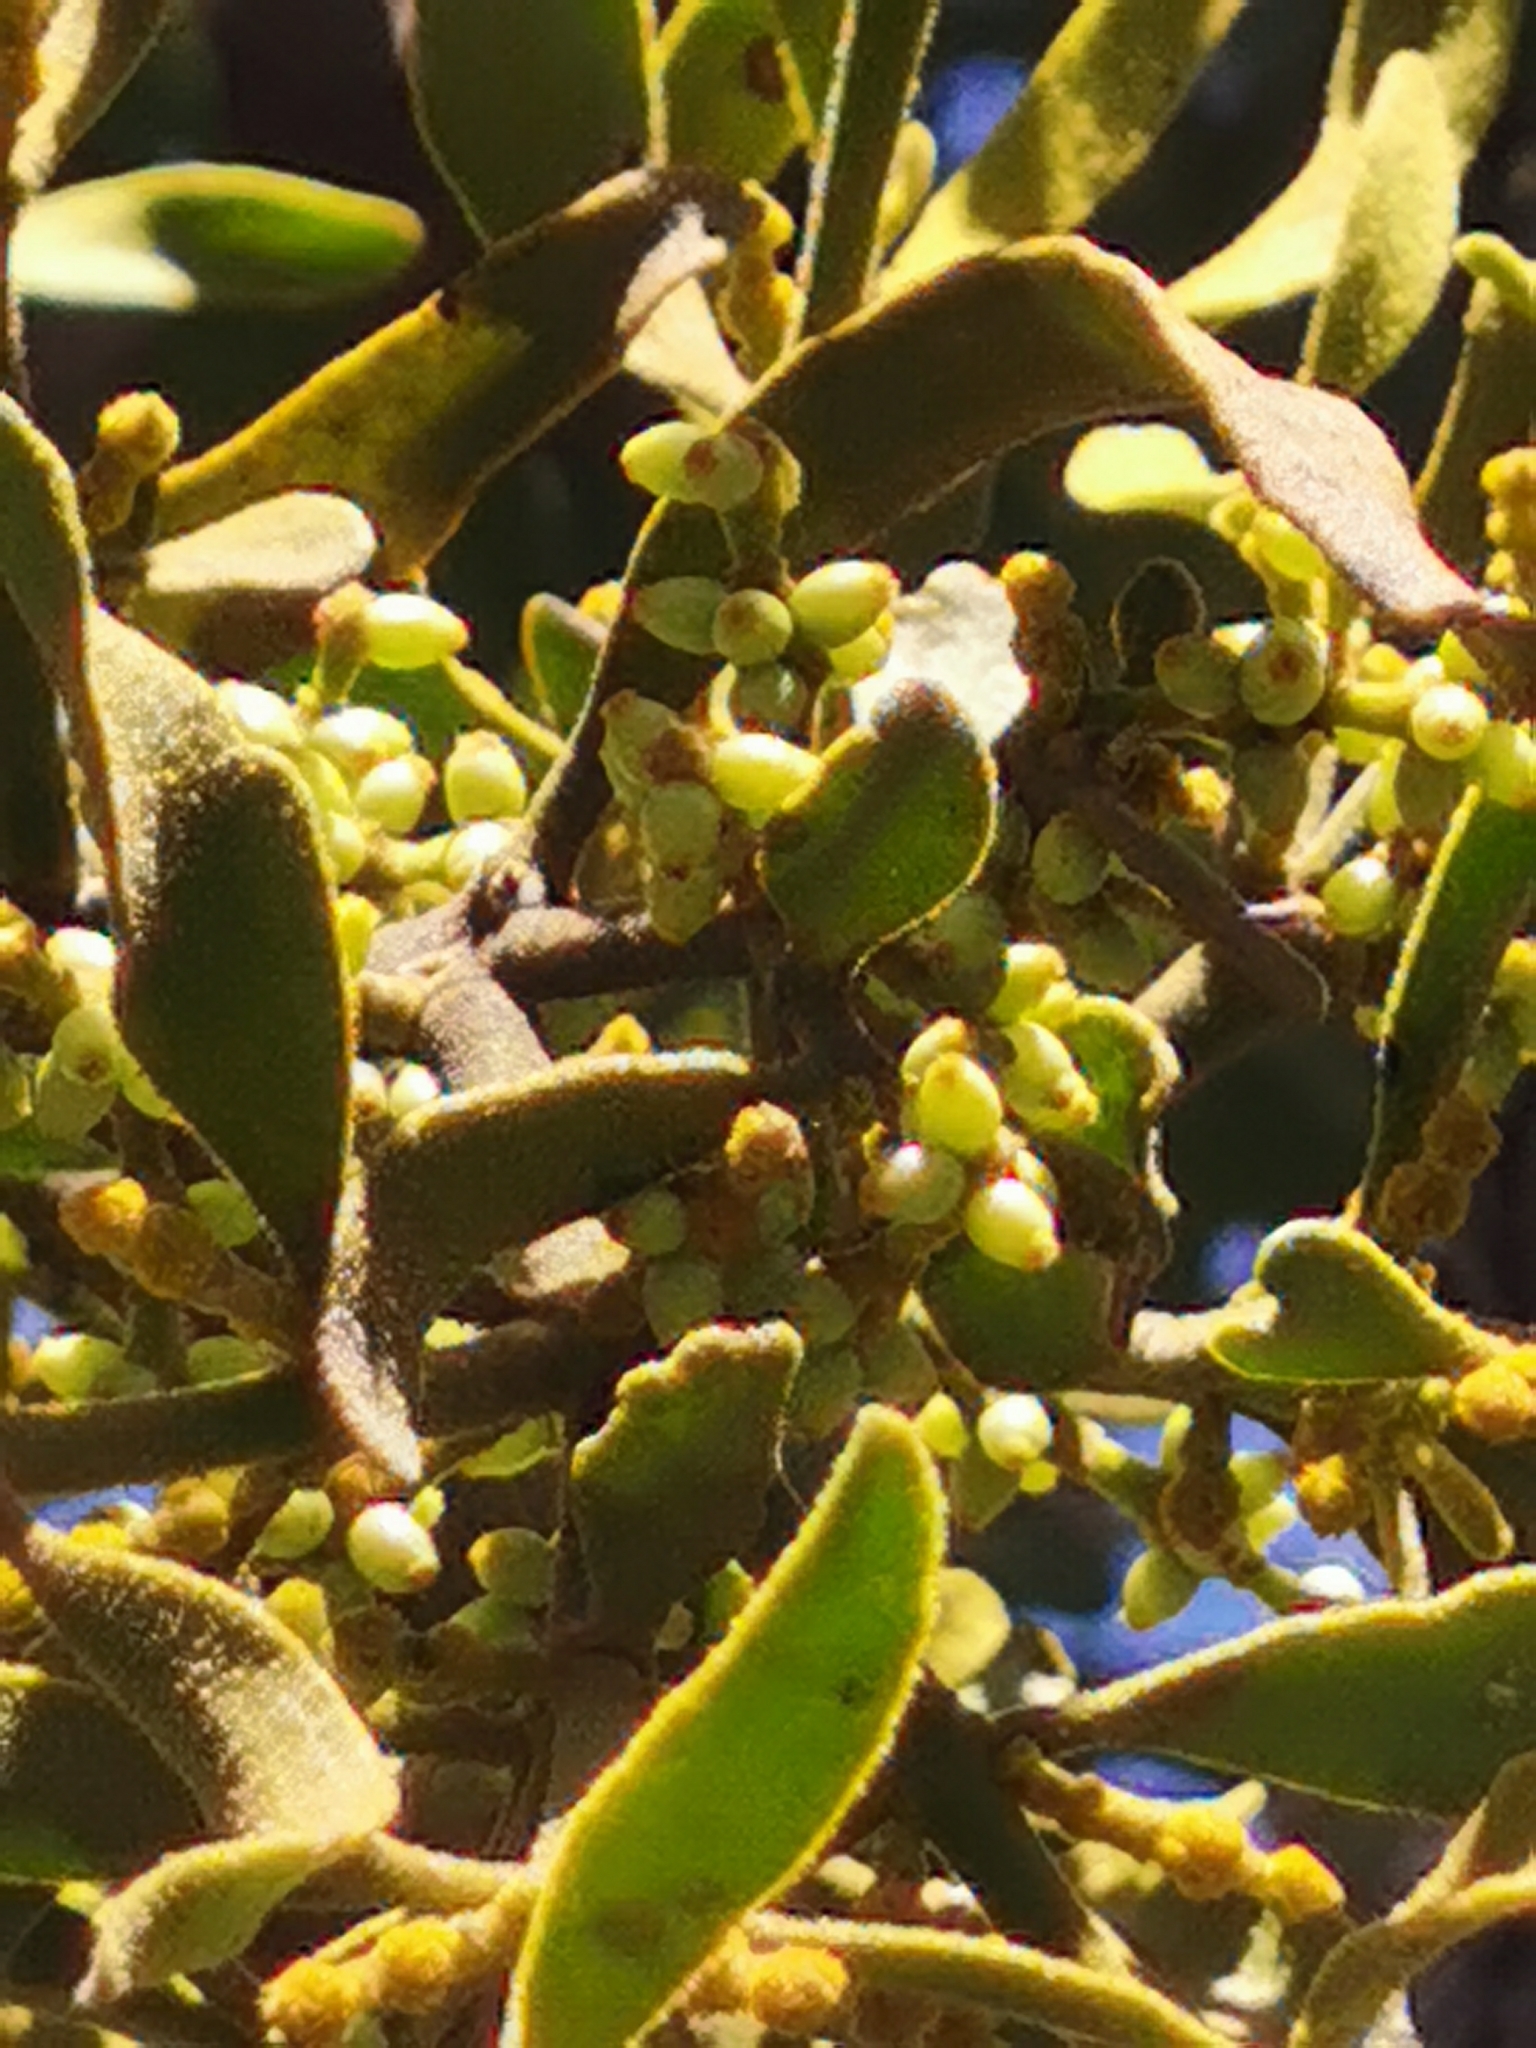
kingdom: Plantae
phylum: Tracheophyta
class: Magnoliopsida
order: Santalales
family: Viscaceae
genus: Phoradendron
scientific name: Phoradendron leucarpum
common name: Pacific mistletoe
